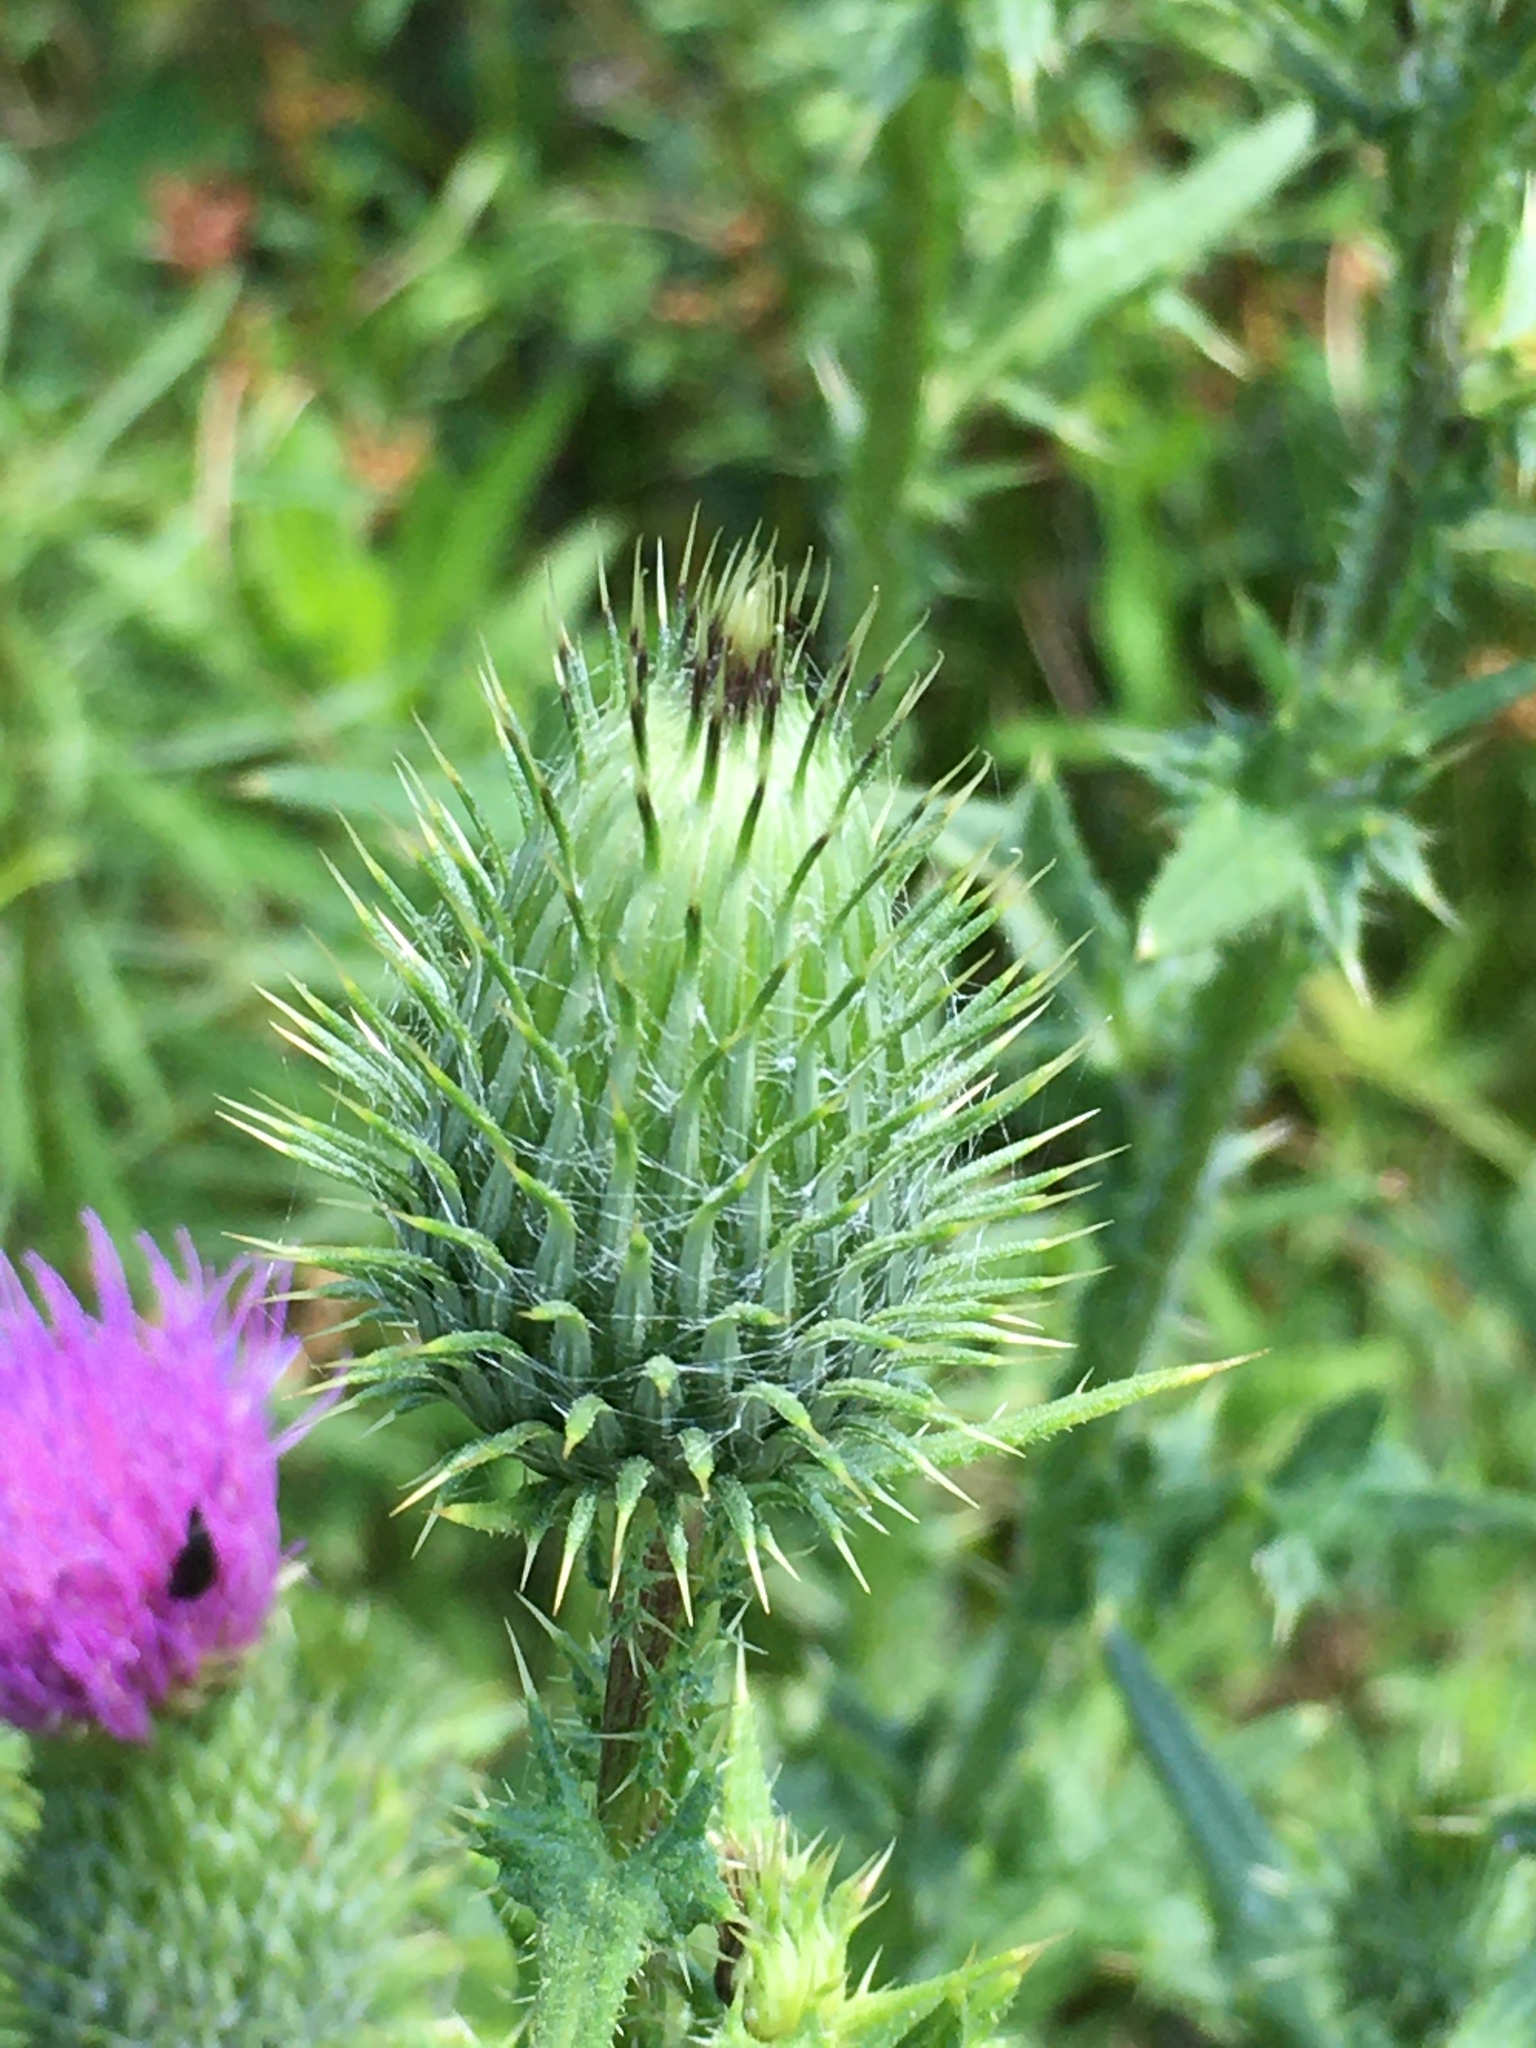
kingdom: Plantae
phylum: Tracheophyta
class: Magnoliopsida
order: Asterales
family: Asteraceae
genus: Cirsium
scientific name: Cirsium vulgare
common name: Bull thistle
